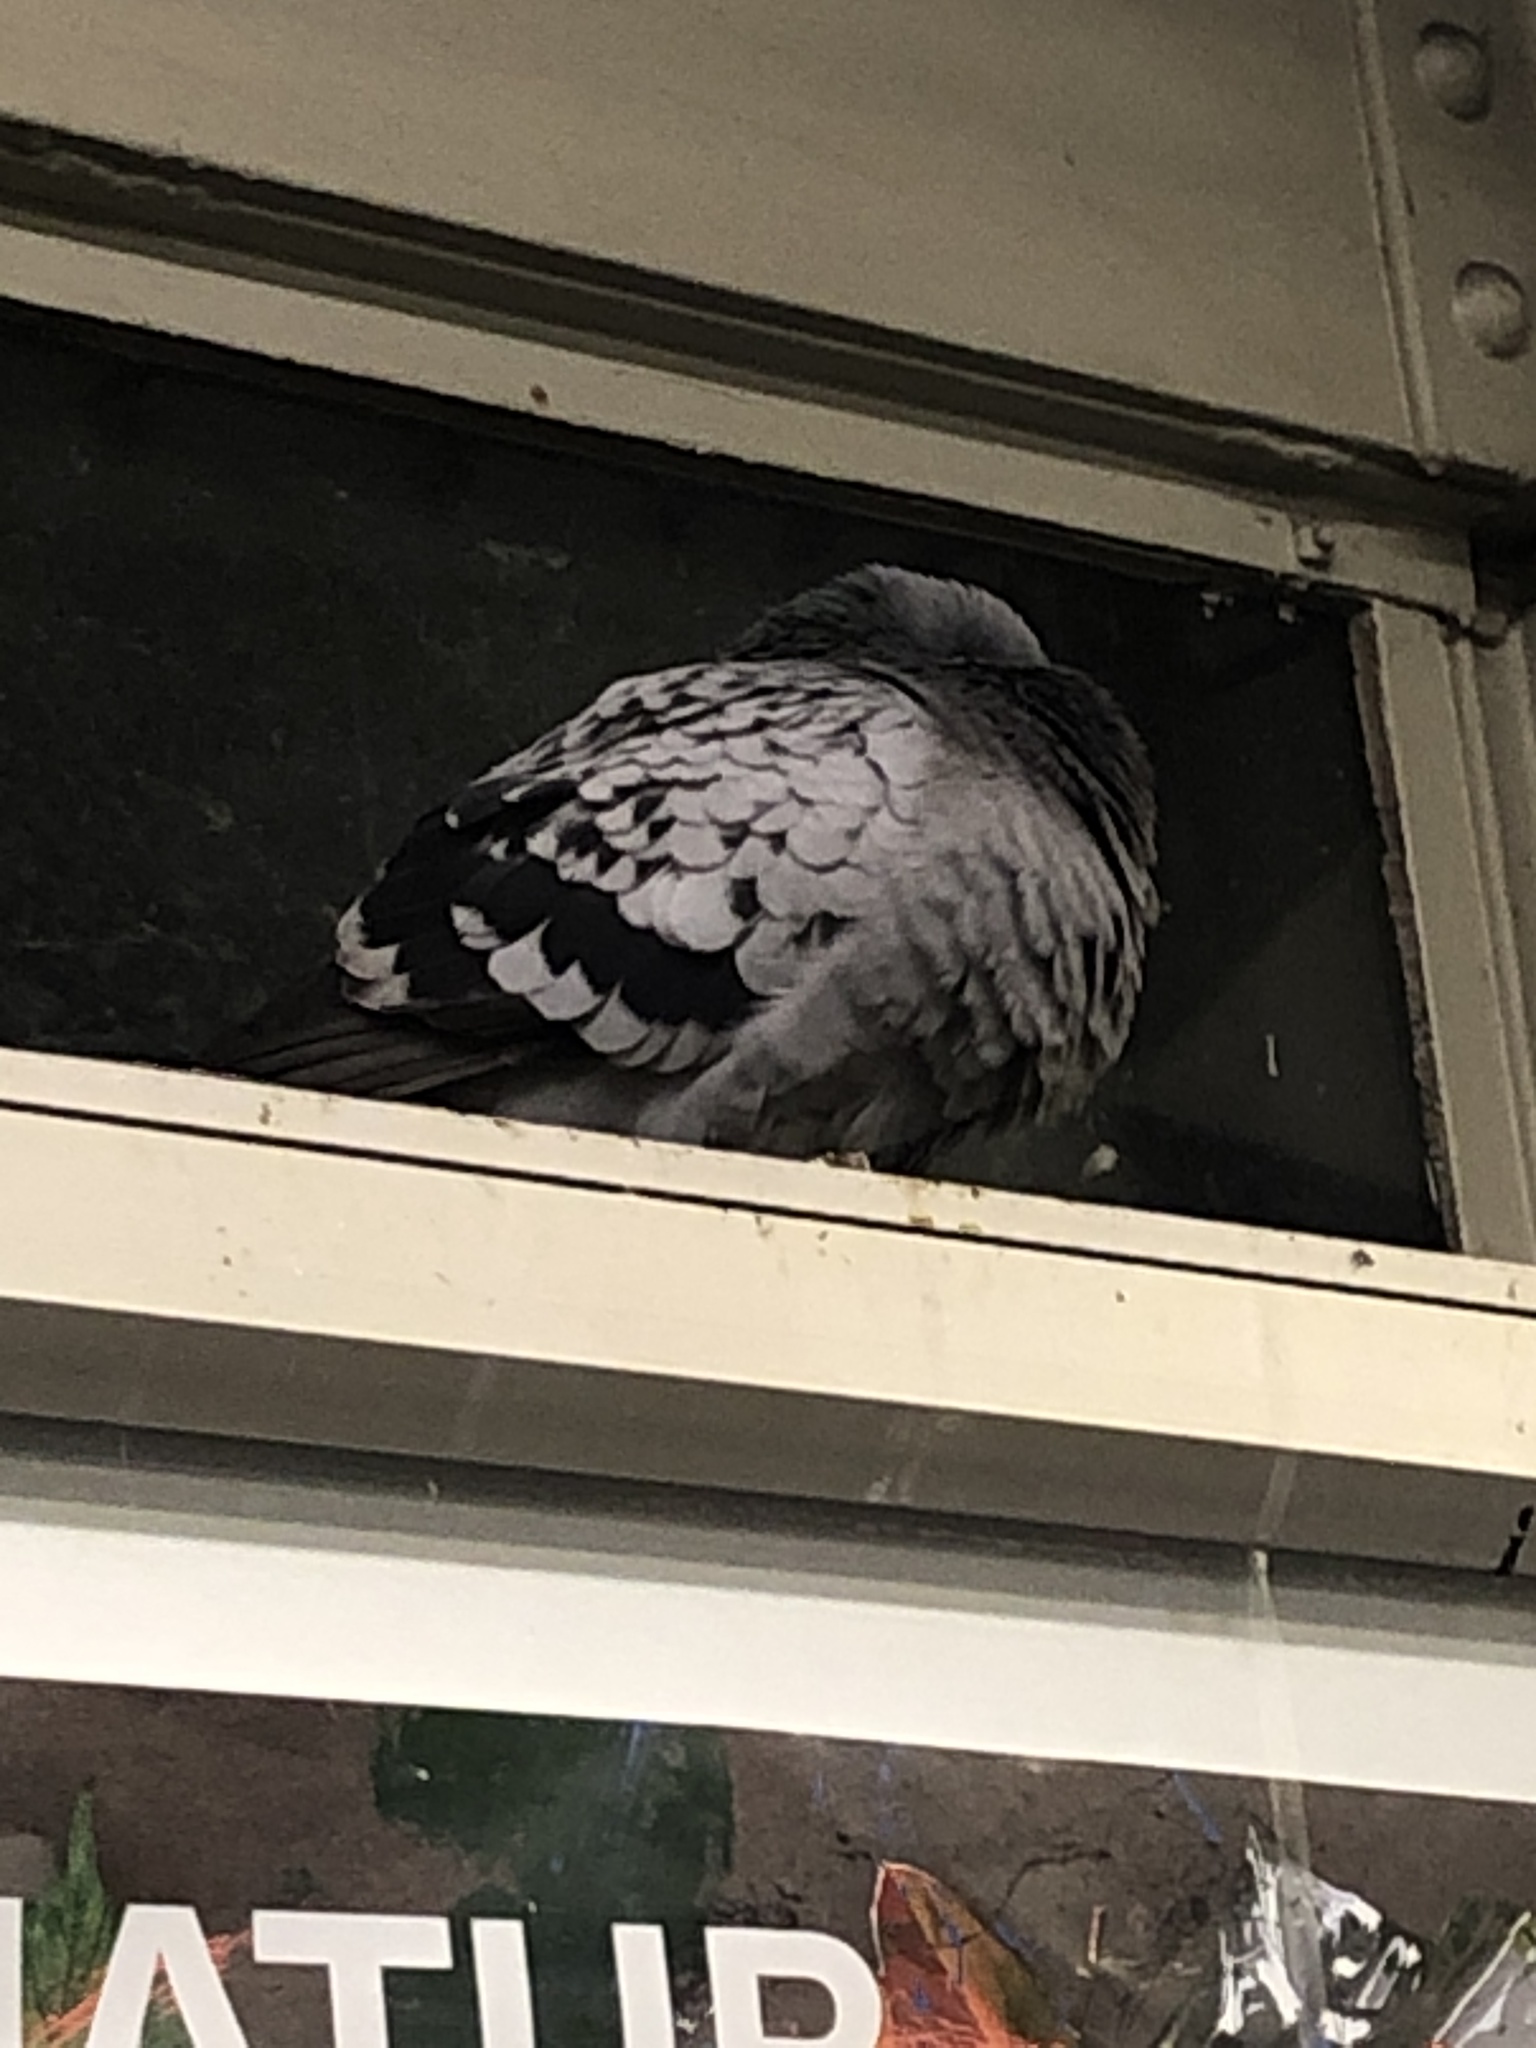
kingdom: Animalia
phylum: Chordata
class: Aves
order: Columbiformes
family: Columbidae
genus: Columba
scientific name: Columba livia
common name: Rock pigeon
